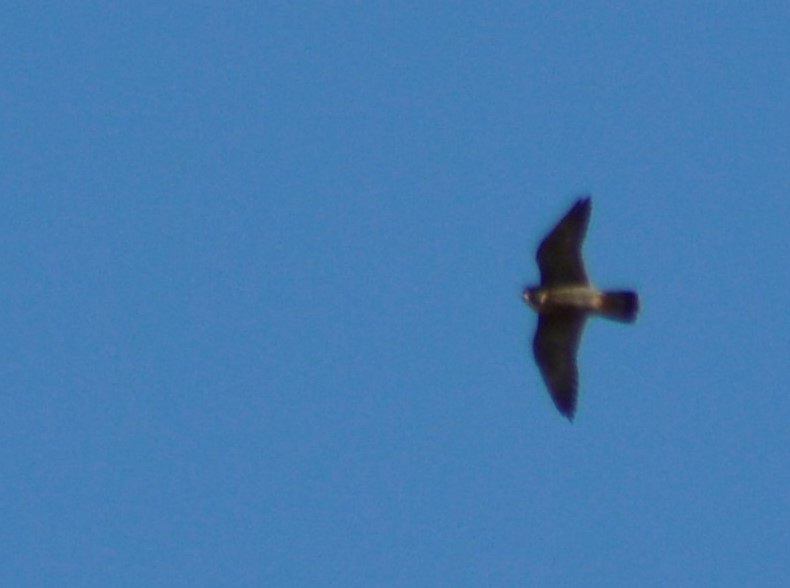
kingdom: Animalia
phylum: Chordata
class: Aves
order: Falconiformes
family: Falconidae
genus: Falco
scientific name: Falco peregrinus
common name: Peregrine falcon
